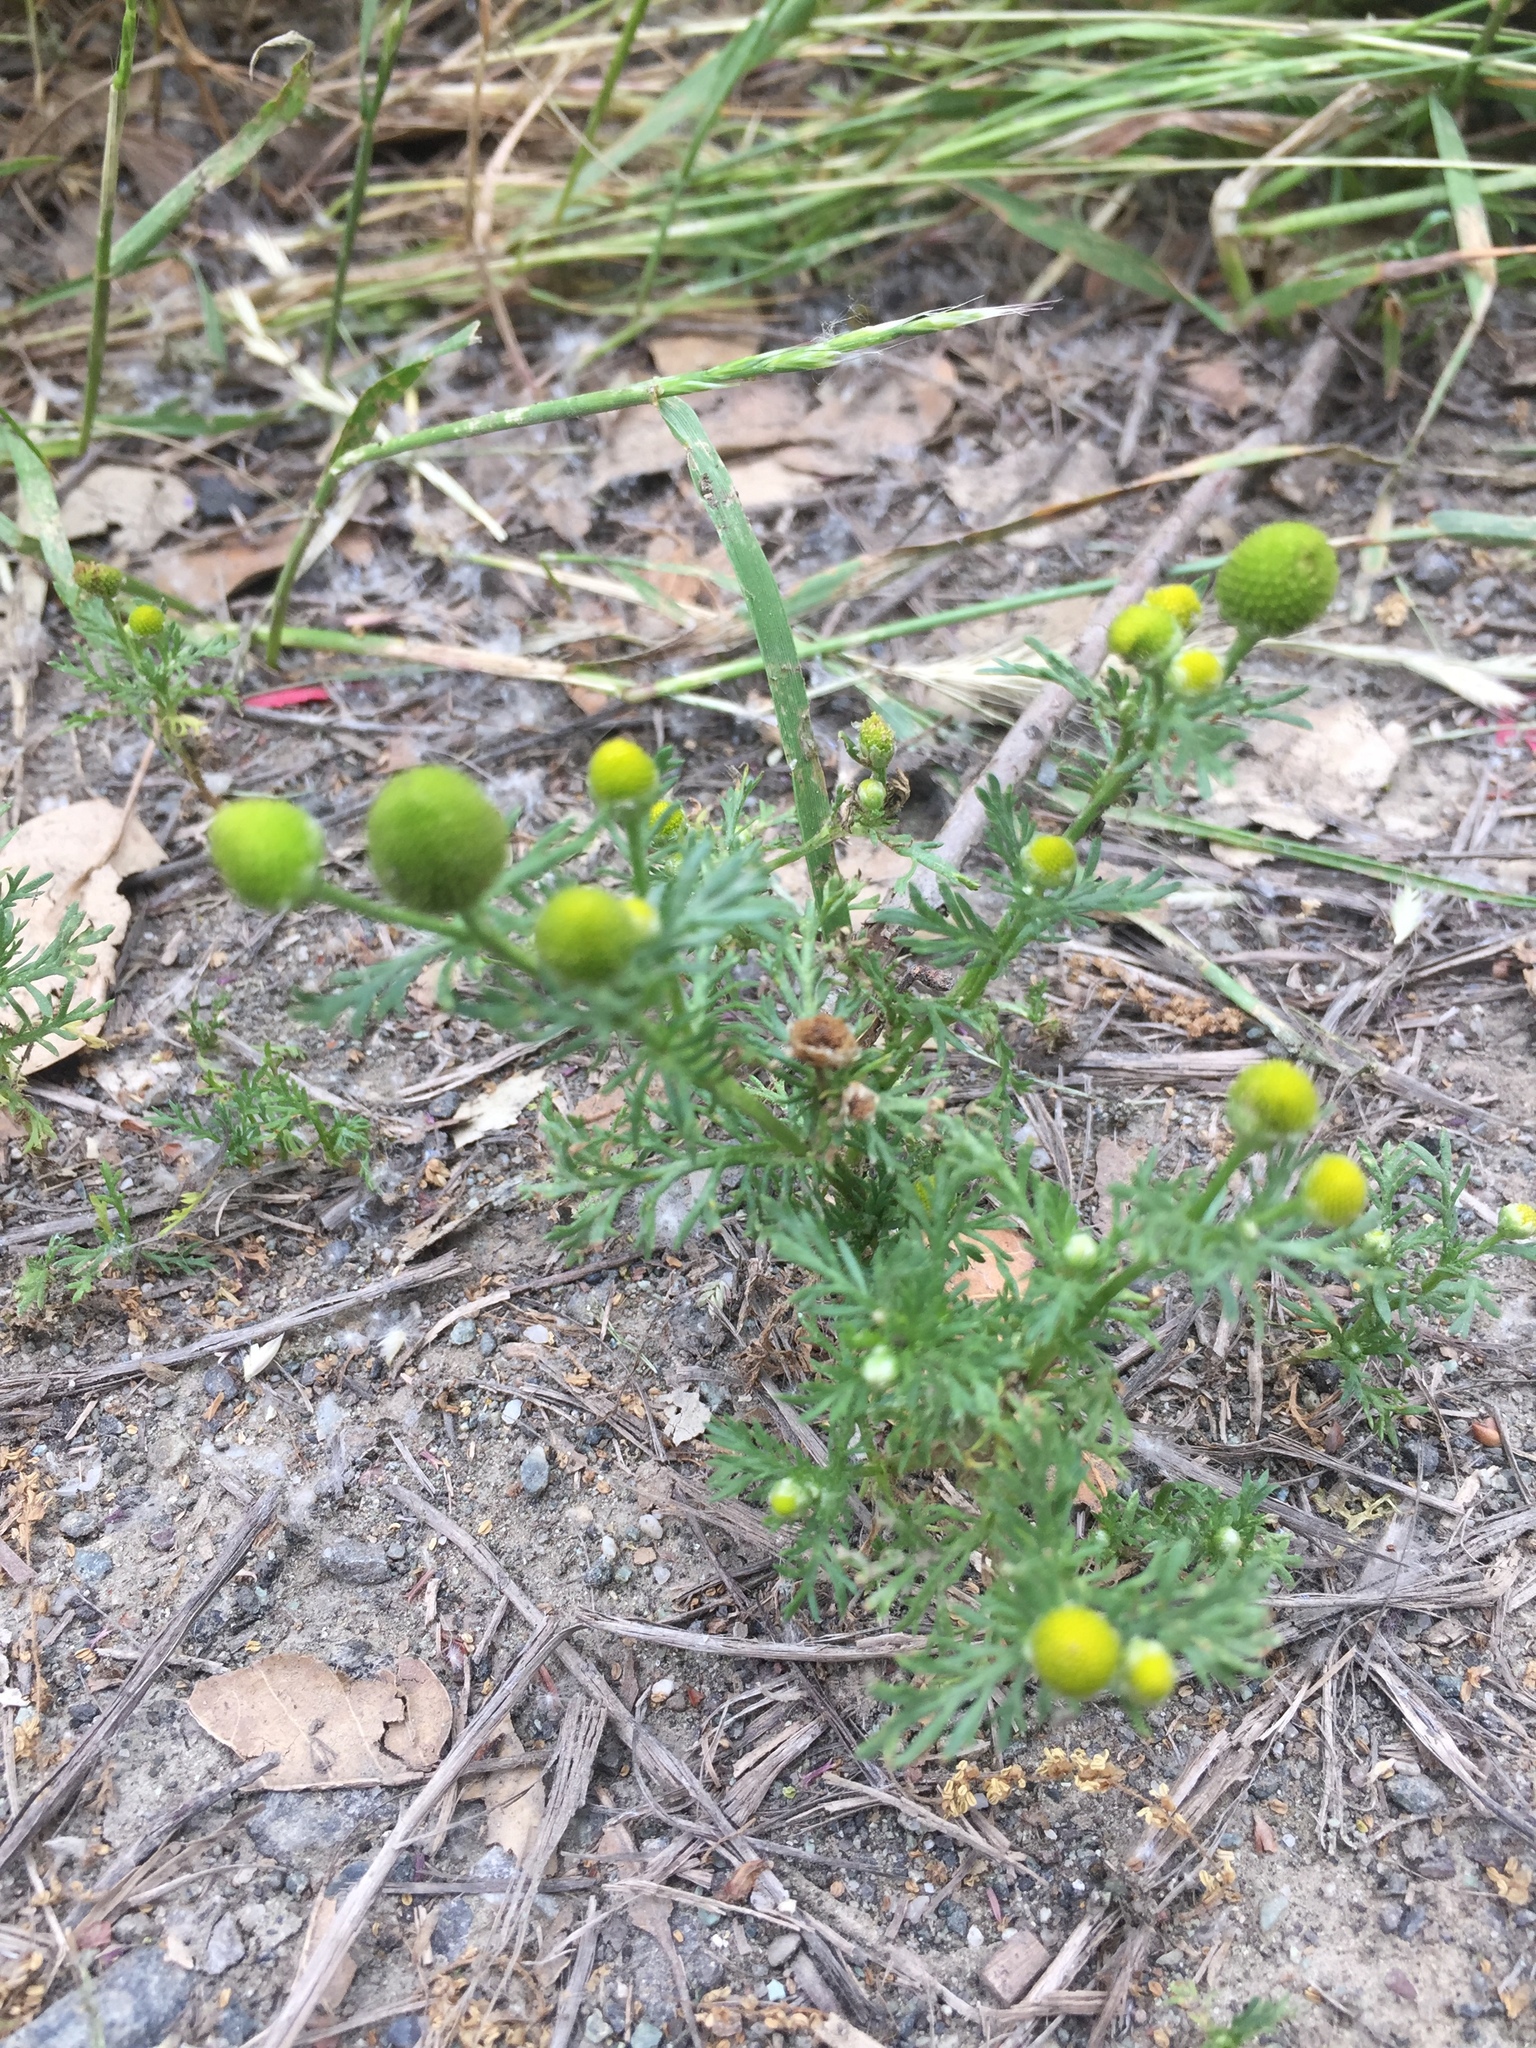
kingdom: Plantae
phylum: Tracheophyta
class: Magnoliopsida
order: Asterales
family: Asteraceae
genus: Matricaria
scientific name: Matricaria discoidea
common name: Disc mayweed
